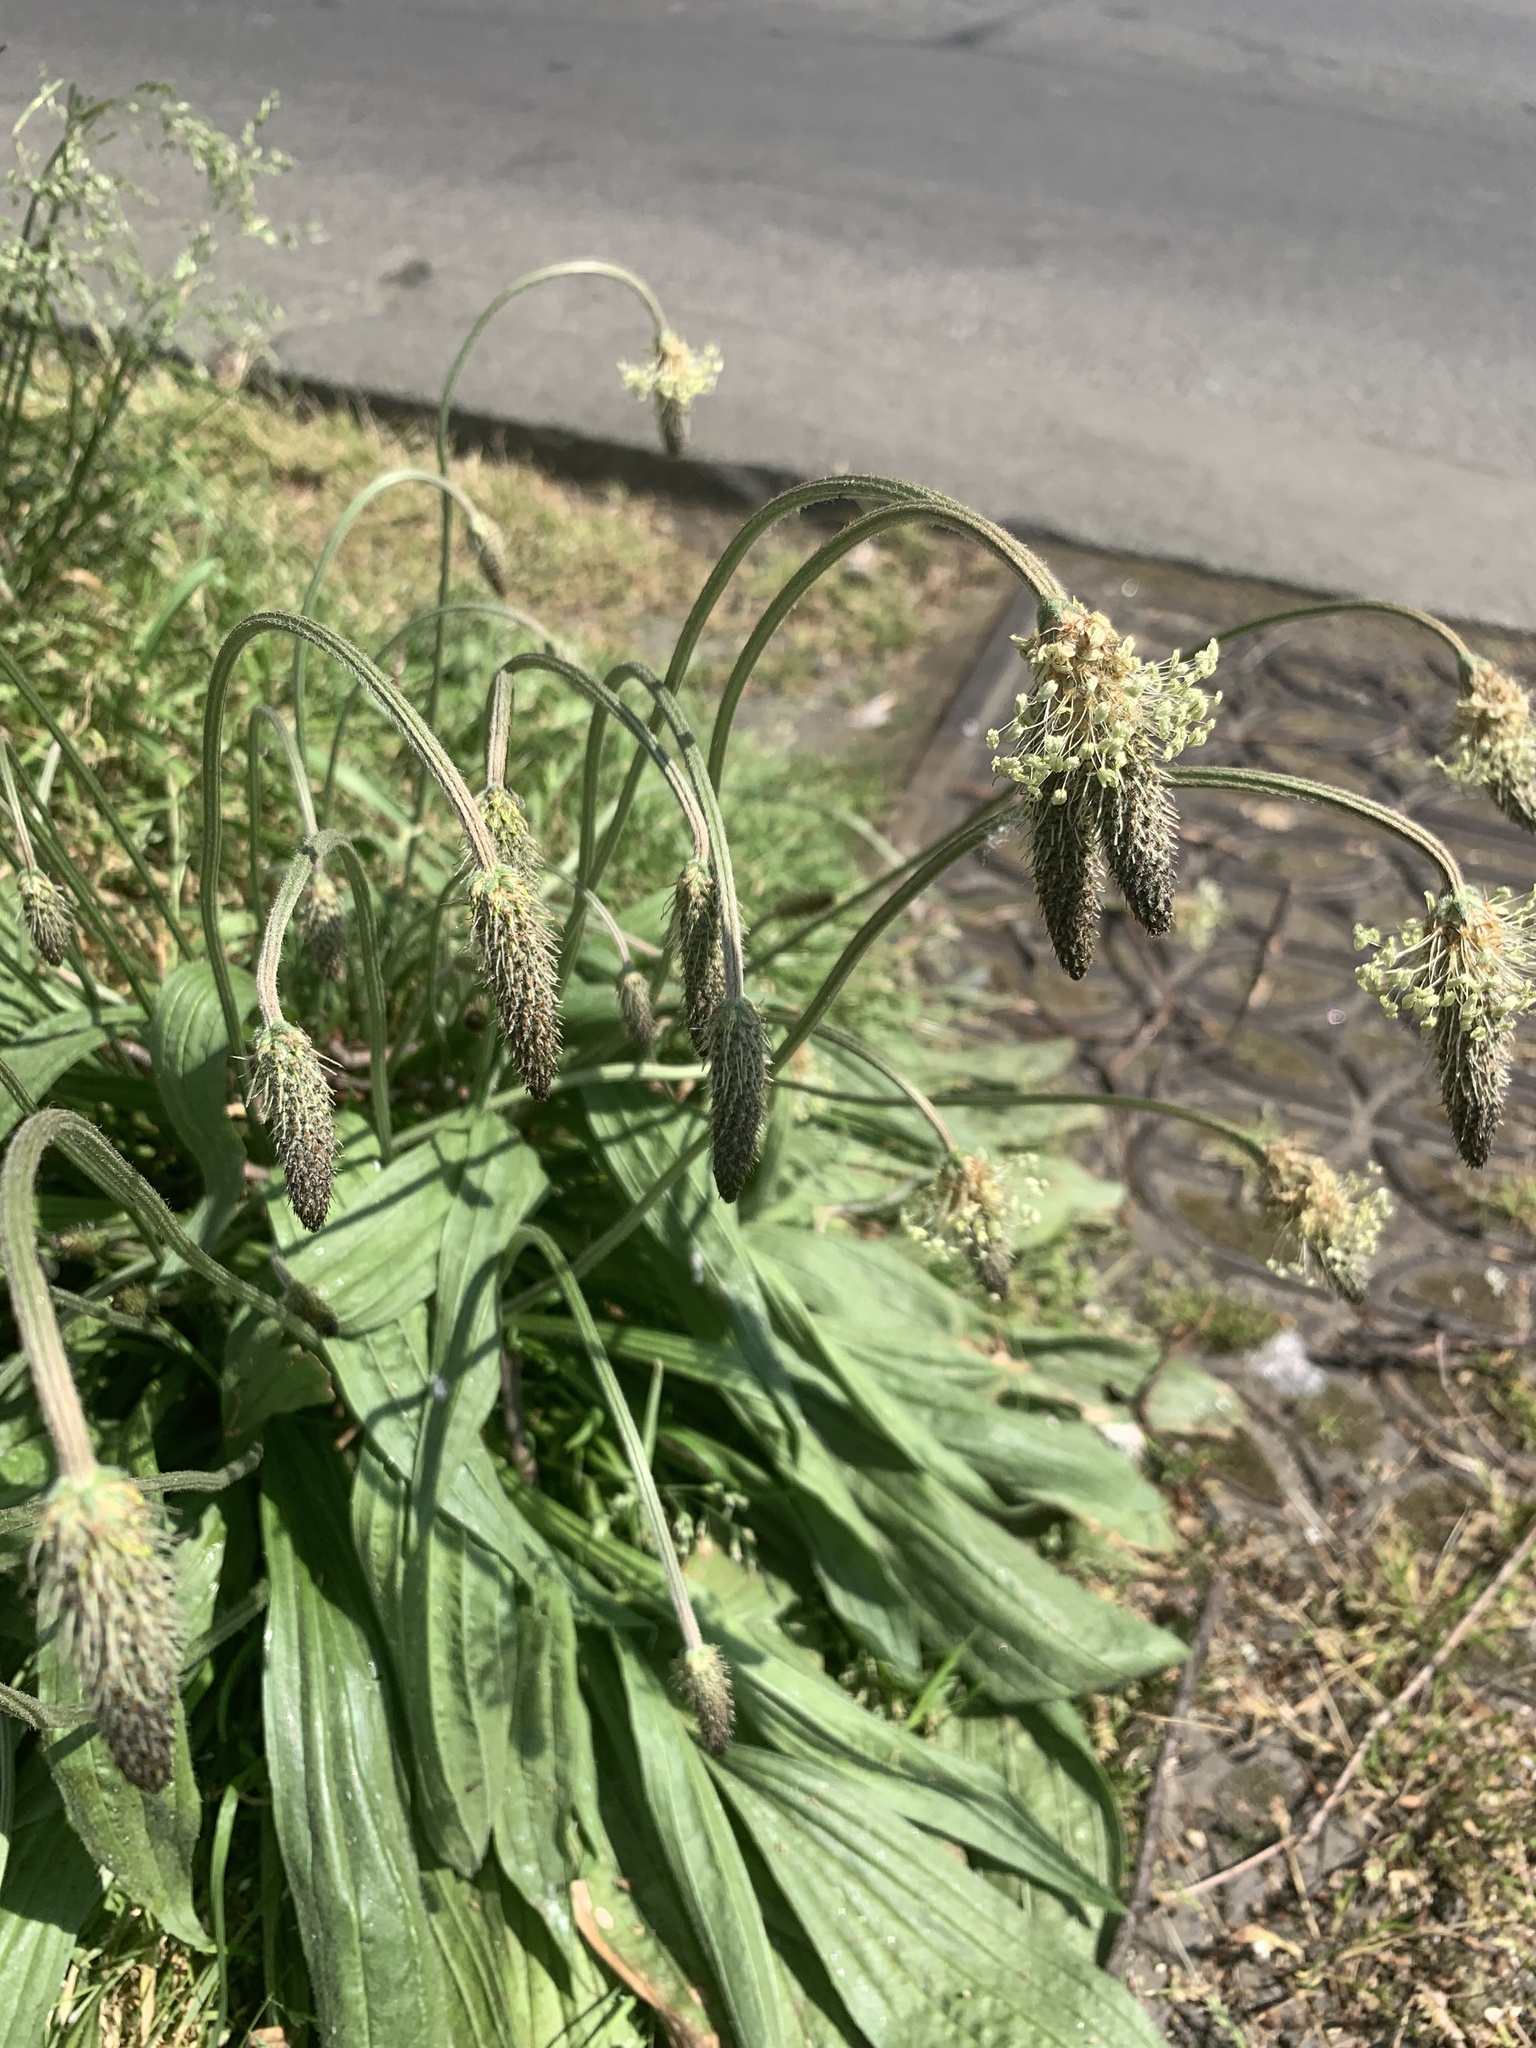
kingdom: Plantae
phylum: Tracheophyta
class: Magnoliopsida
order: Lamiales
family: Plantaginaceae
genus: Plantago
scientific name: Plantago lanceolata
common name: Ribwort plantain
